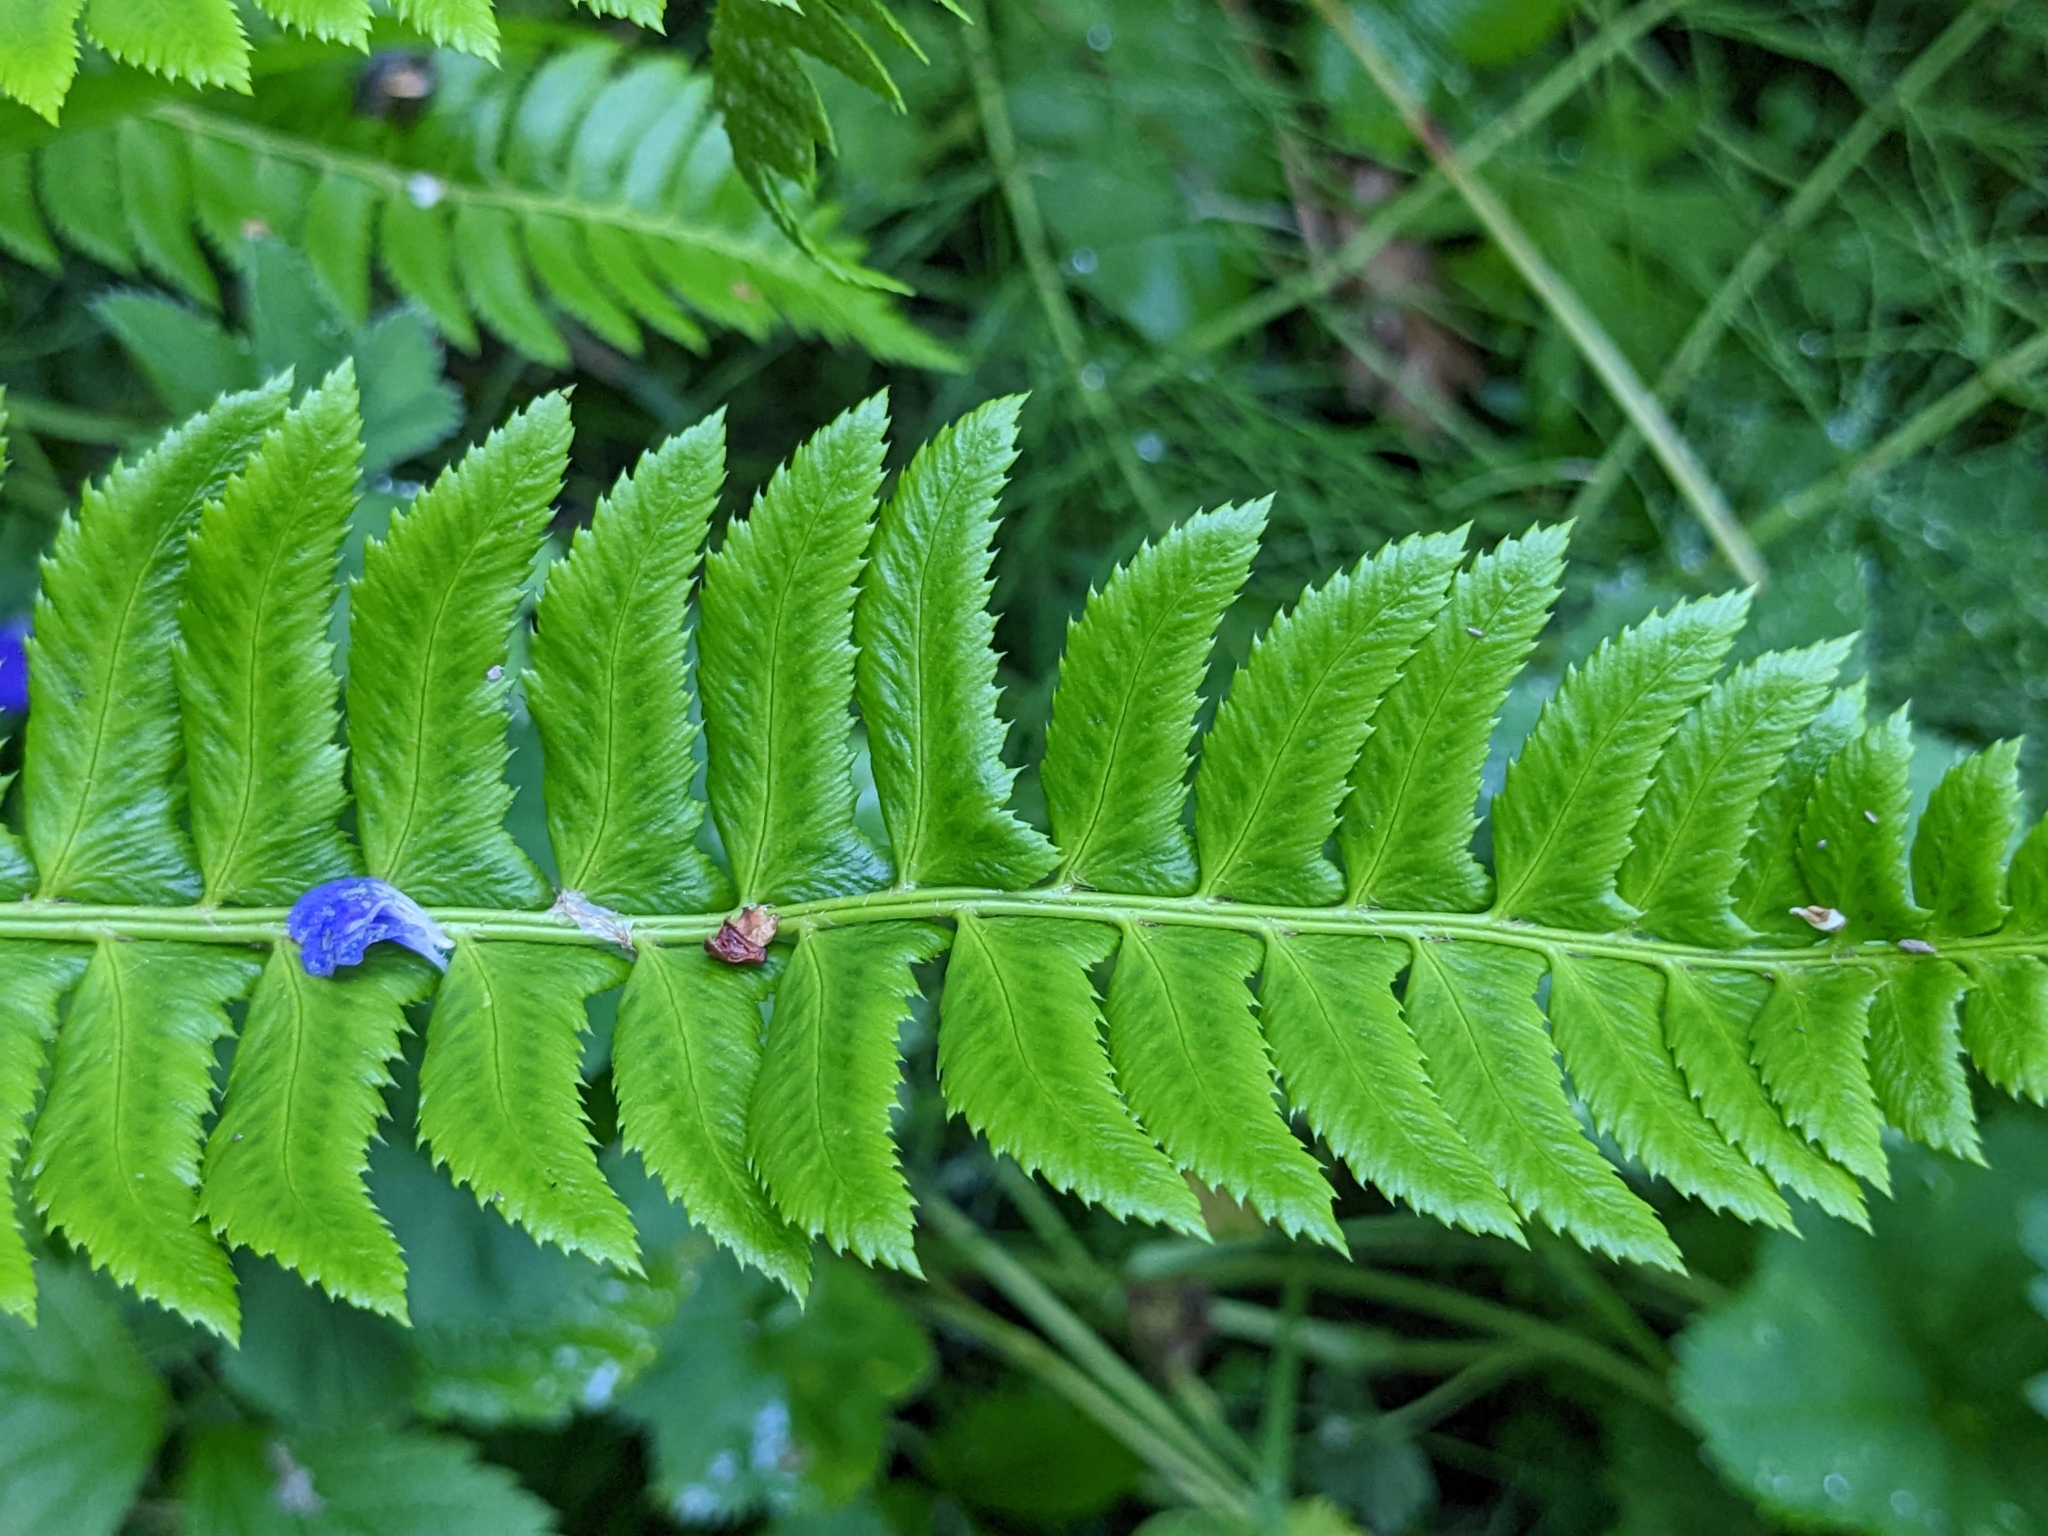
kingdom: Plantae
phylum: Tracheophyta
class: Polypodiopsida
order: Polypodiales
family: Dryopteridaceae
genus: Polystichum
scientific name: Polystichum lonchitis
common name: Holly fern
